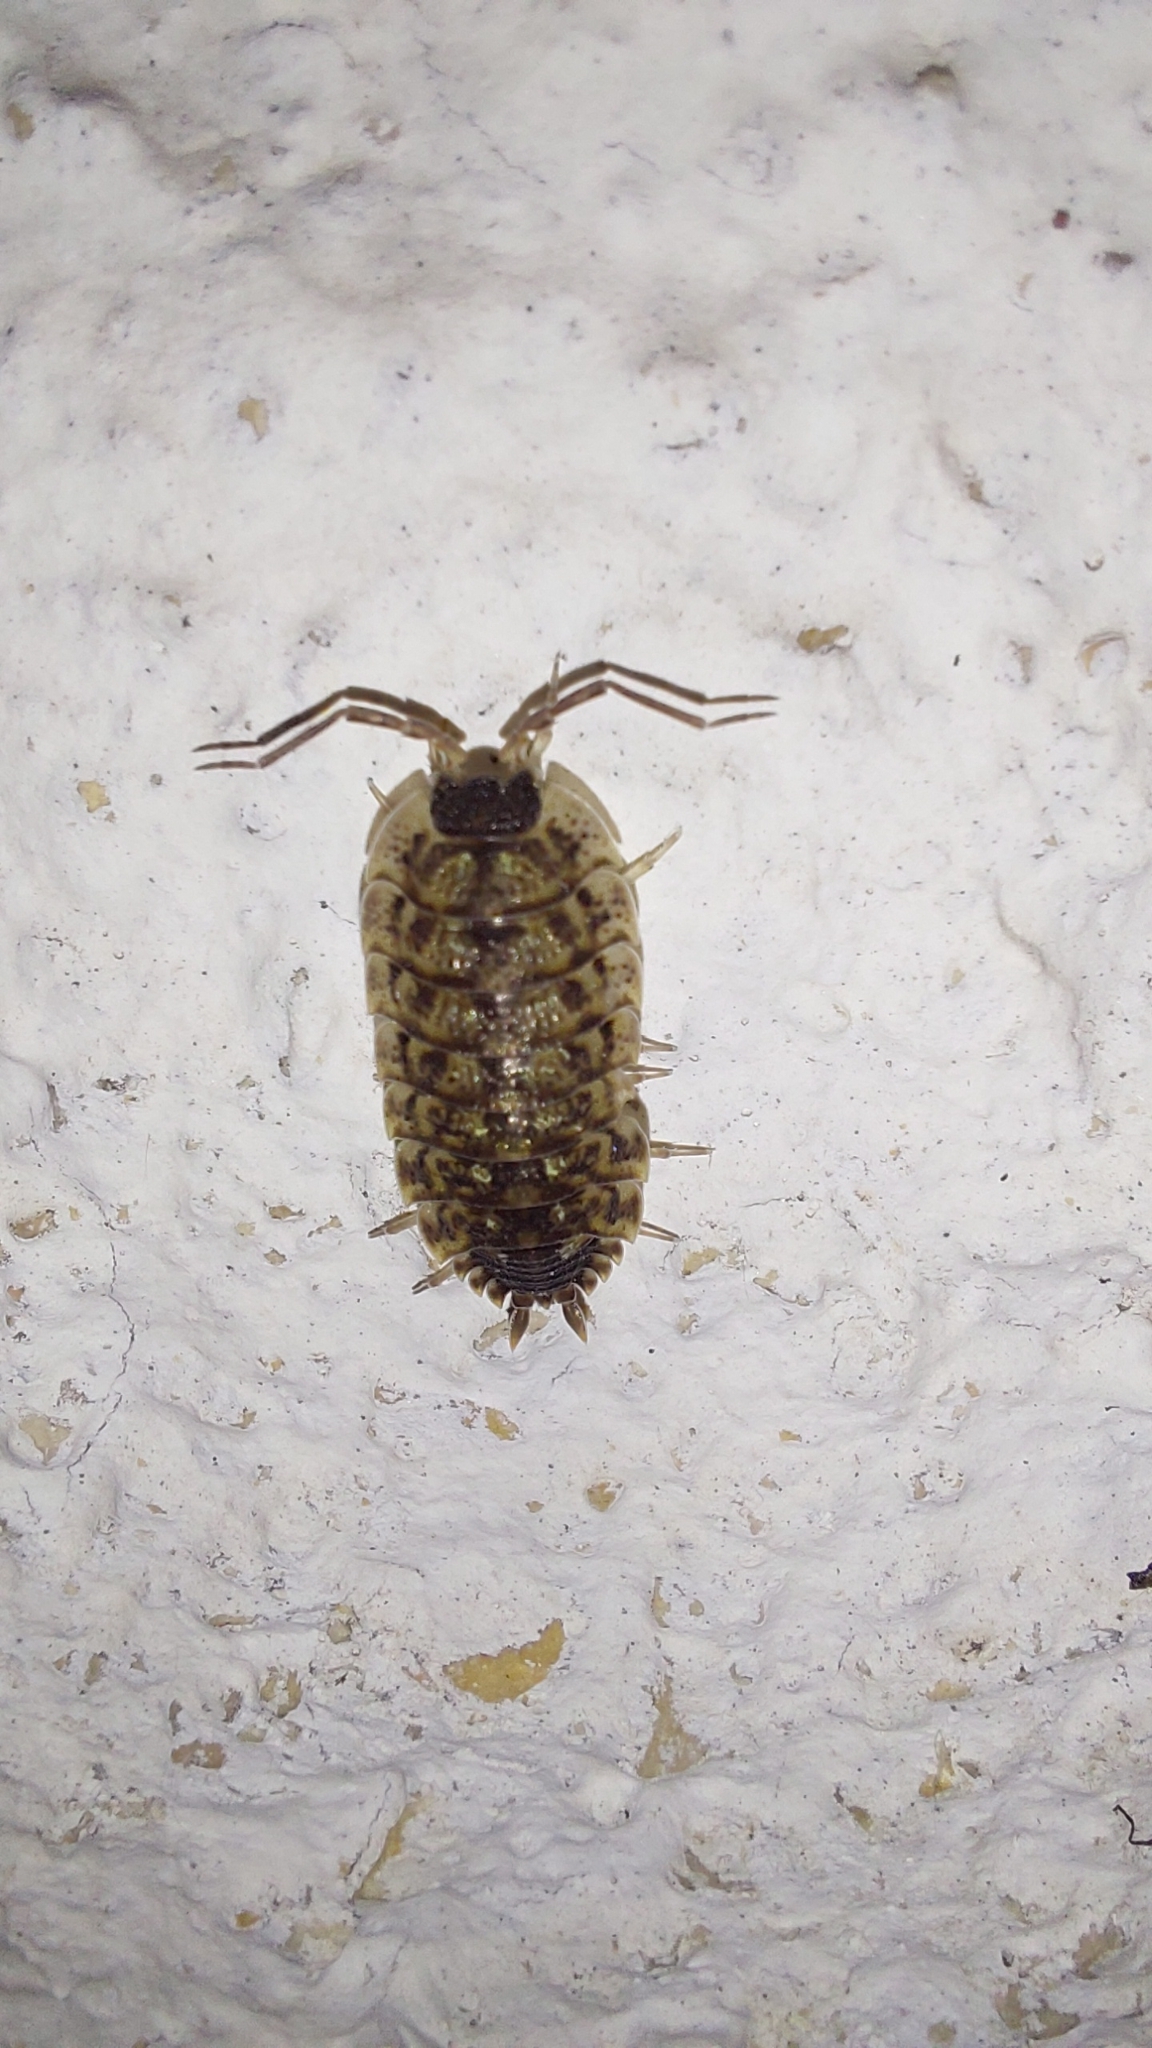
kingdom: Animalia
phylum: Arthropoda
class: Malacostraca
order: Isopoda
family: Porcellionidae
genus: Porcellio
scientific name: Porcellio spinicornis
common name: Painted woodlouse
